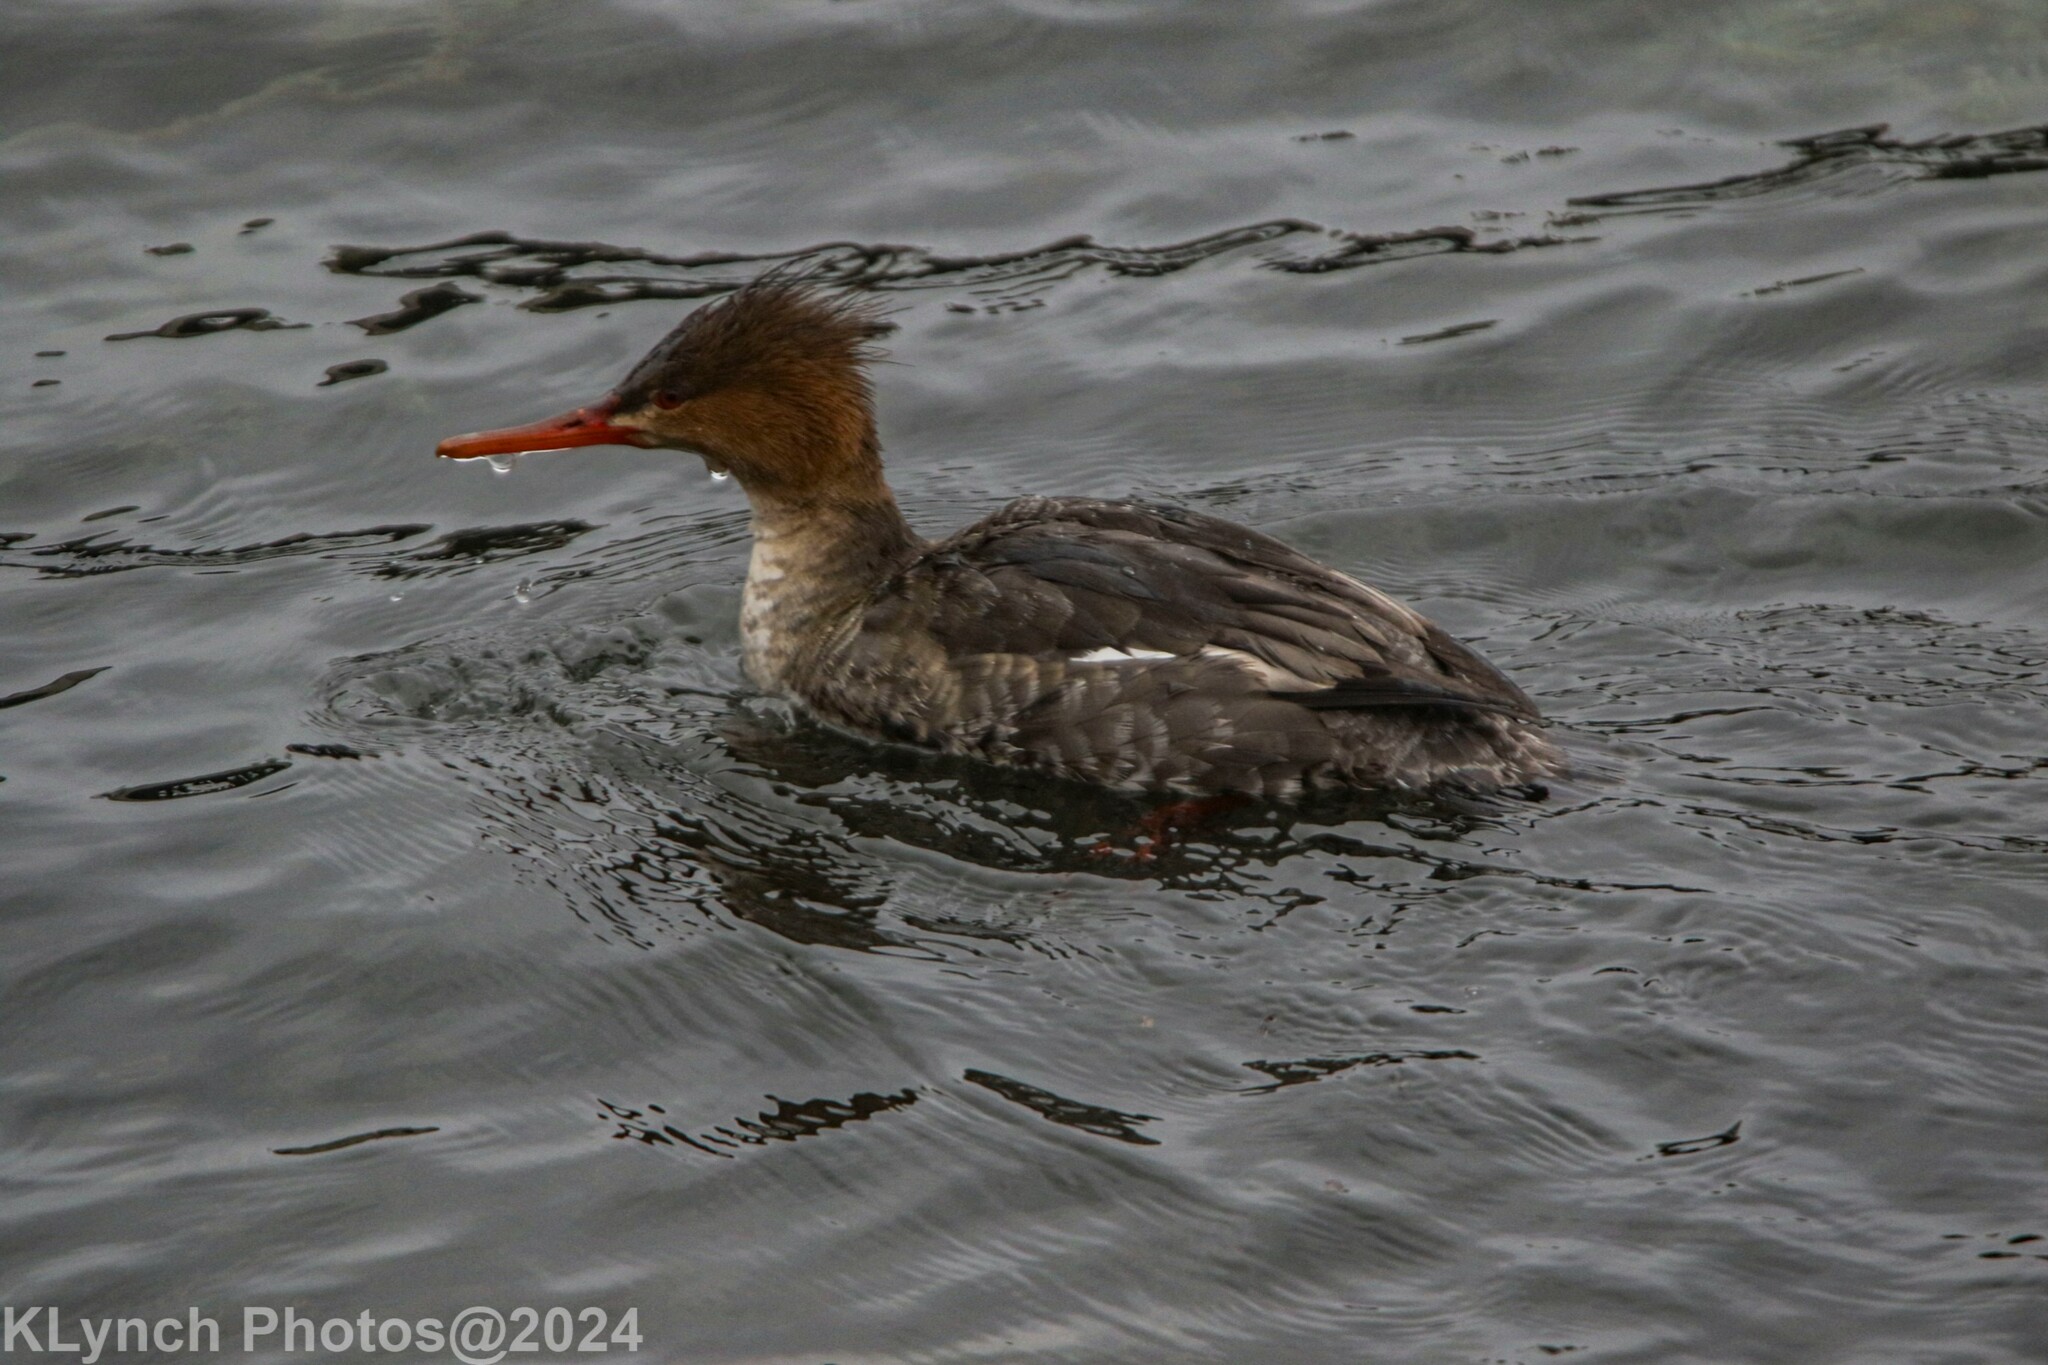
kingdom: Animalia
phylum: Chordata
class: Aves
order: Anseriformes
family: Anatidae
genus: Mergus
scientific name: Mergus serrator
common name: Red-breasted merganser
